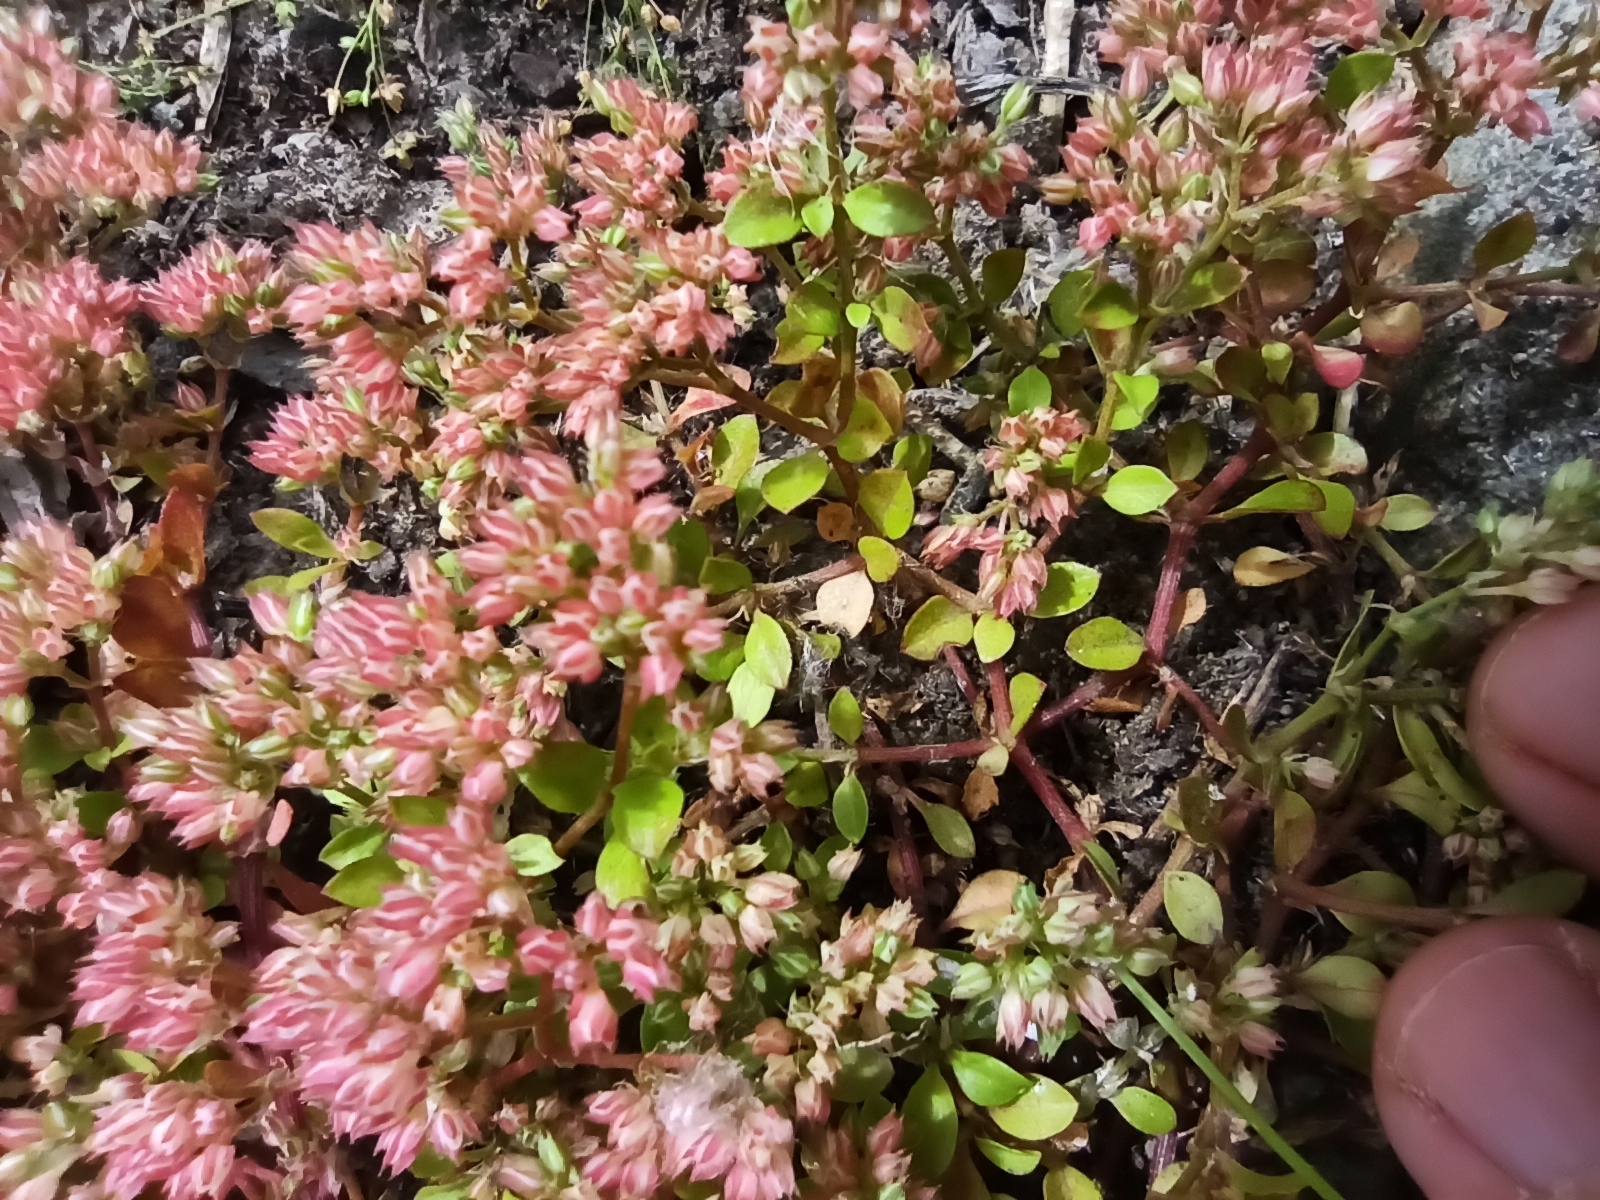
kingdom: Plantae
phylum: Tracheophyta
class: Magnoliopsida
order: Caryophyllales
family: Caryophyllaceae
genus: Polycarpon
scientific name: Polycarpon tetraphyllum
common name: Four-leaved all-seed
